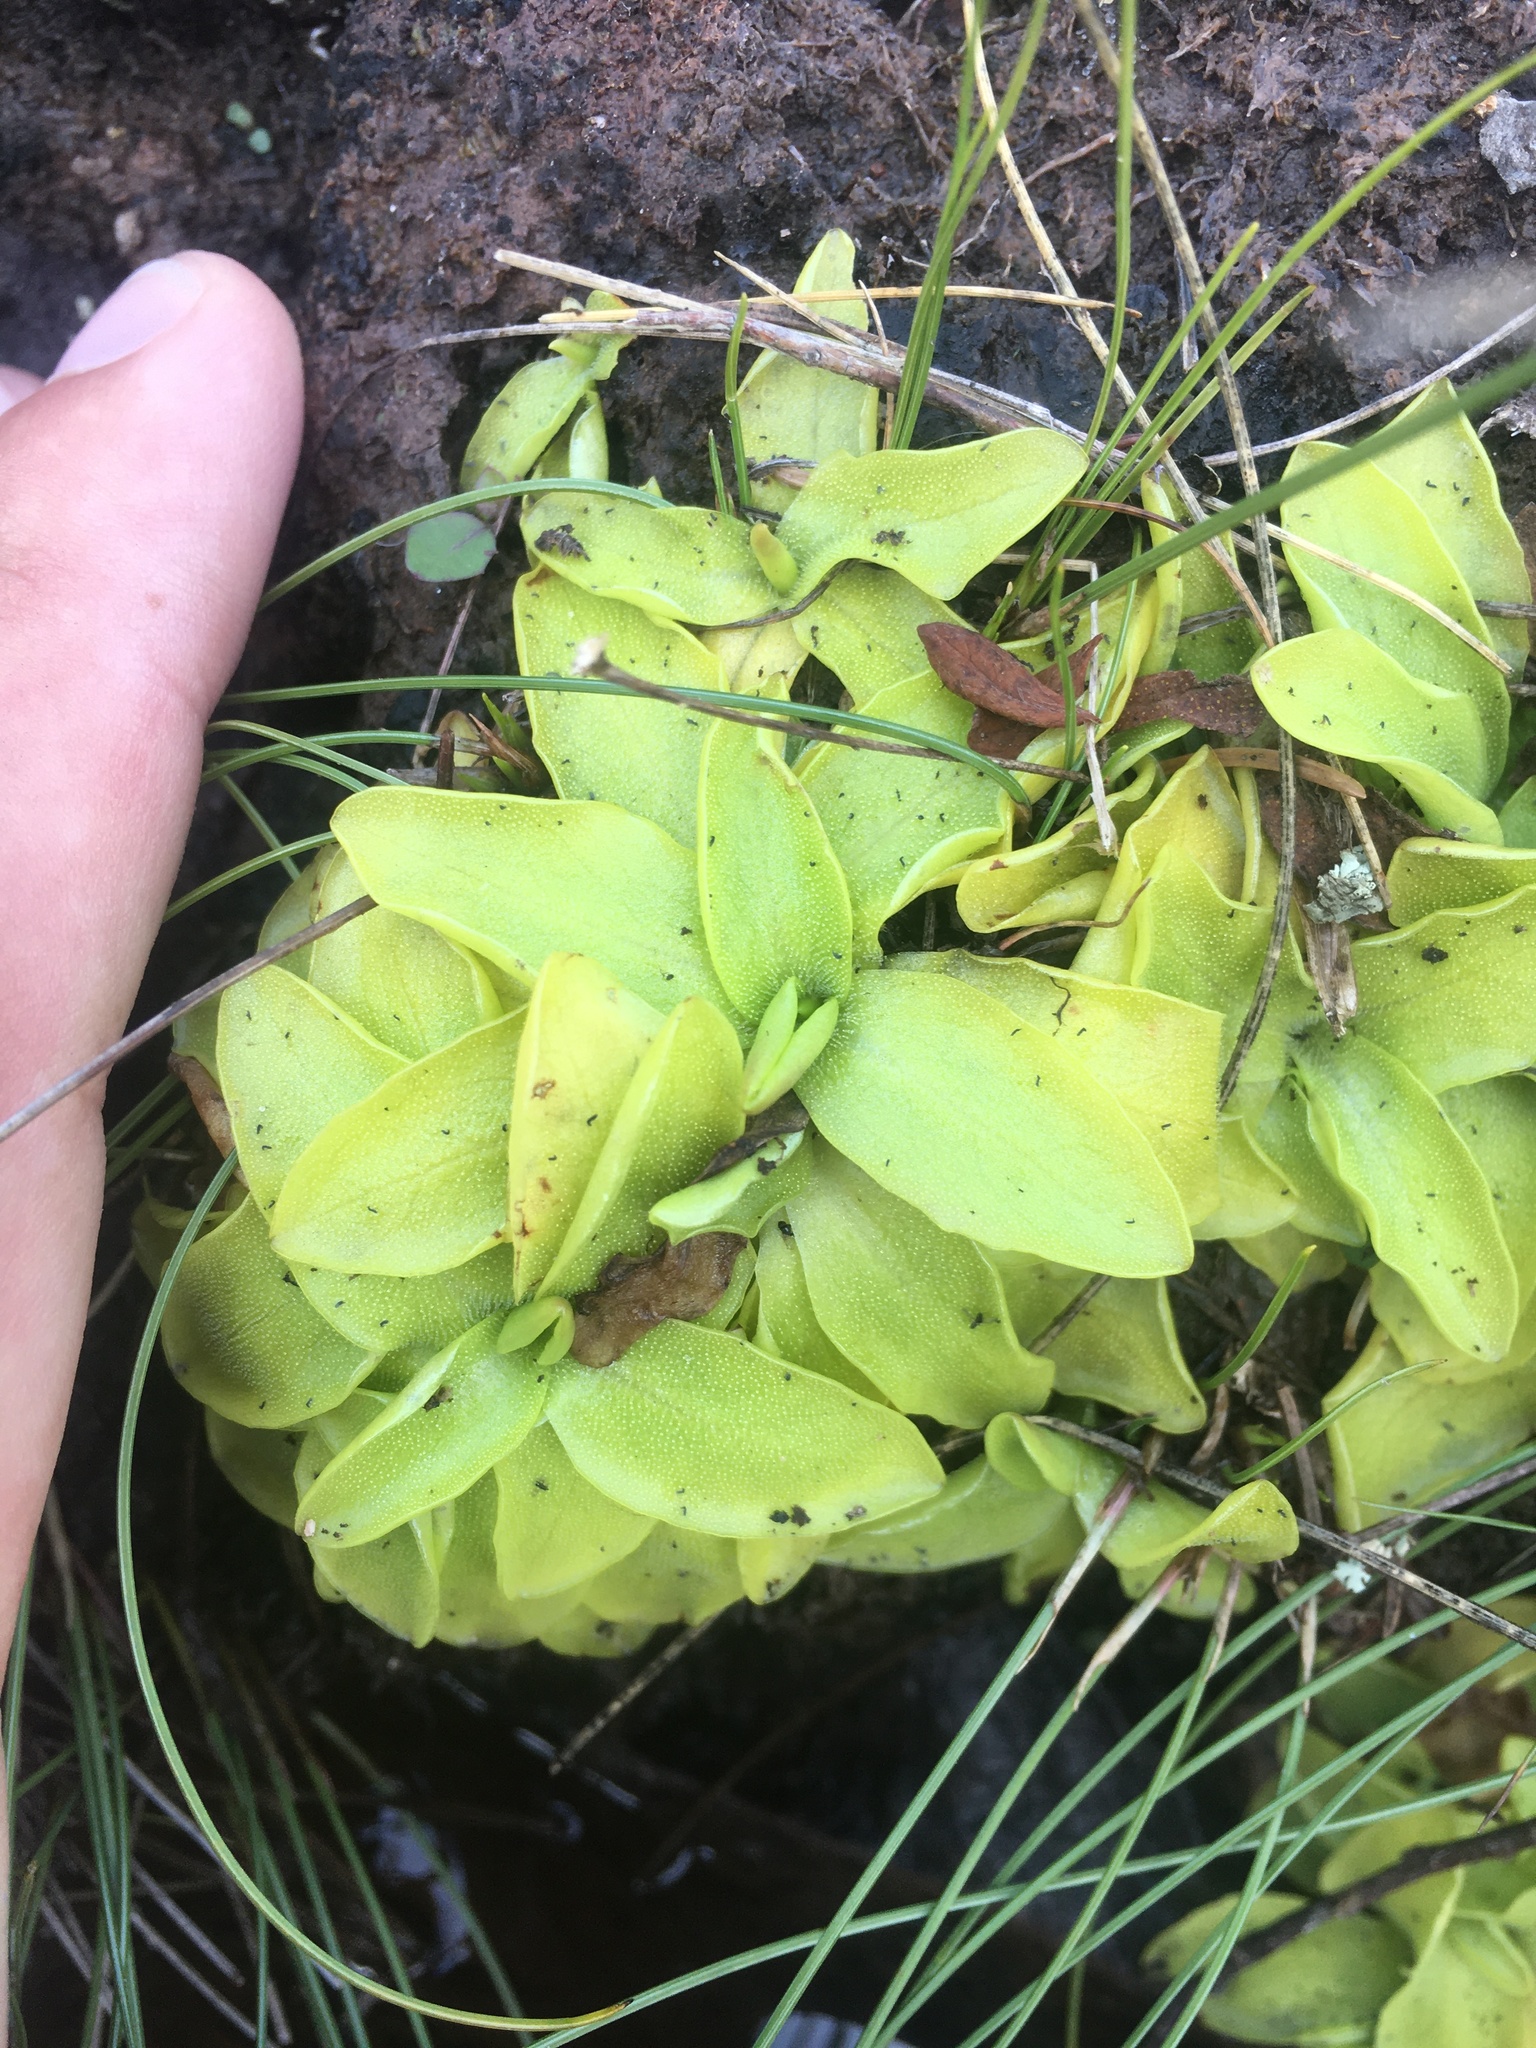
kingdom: Plantae
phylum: Tracheophyta
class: Magnoliopsida
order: Lamiales
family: Lentibulariaceae
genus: Pinguicula
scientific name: Pinguicula vulgaris
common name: Common butterwort
